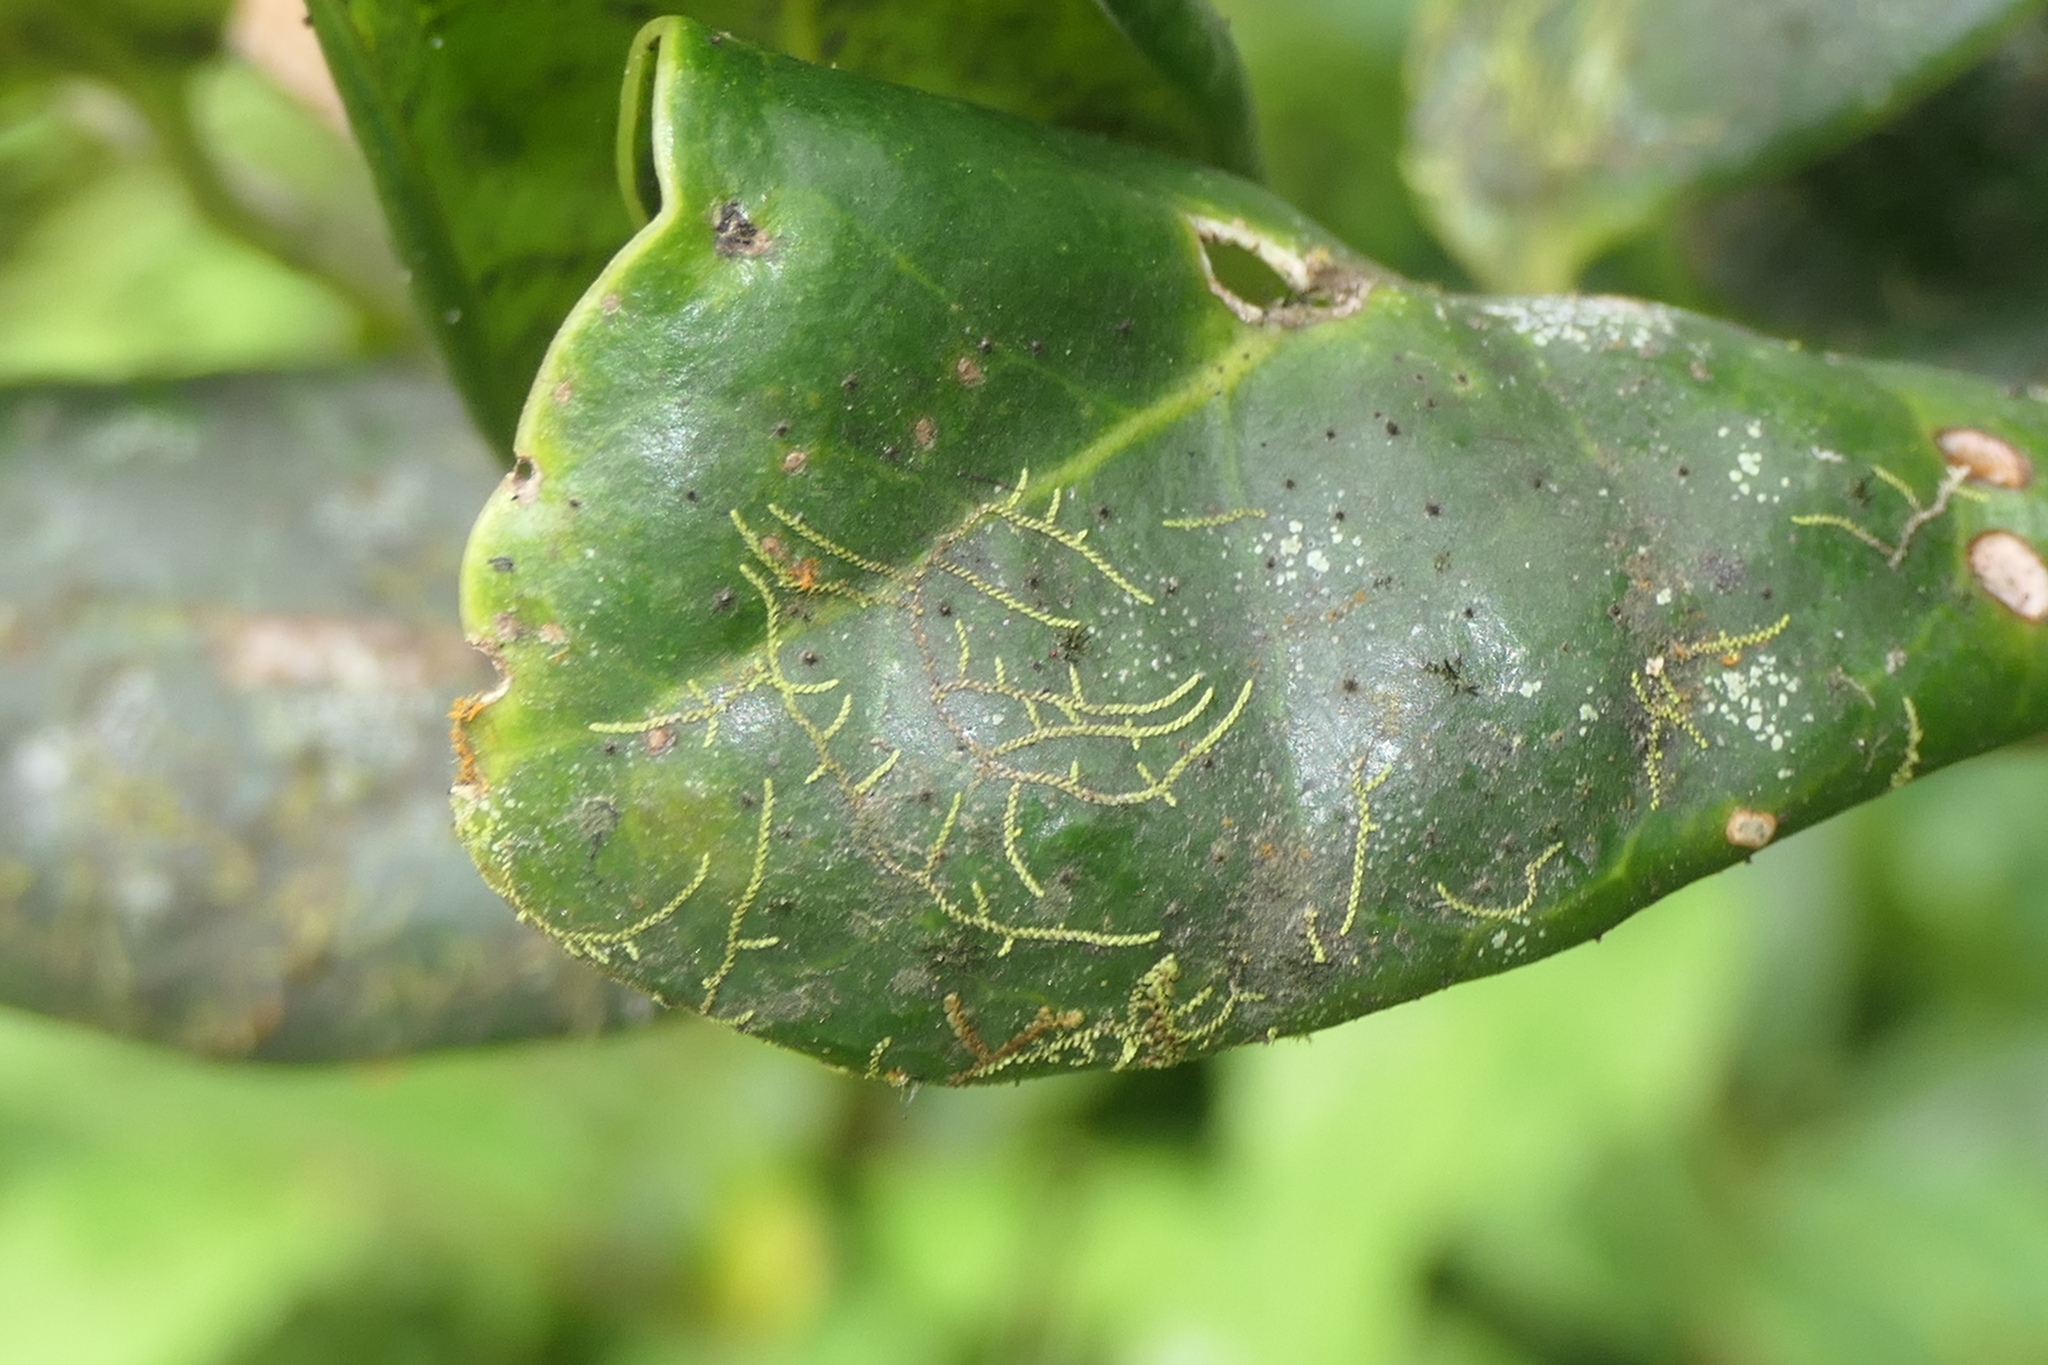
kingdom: Plantae
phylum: Marchantiophyta
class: Jungermanniopsida
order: Porellales
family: Lejeuneaceae
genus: Drepanolejeunea
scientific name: Drepanolejeunea hamatifolia
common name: Toothed pouncewort
